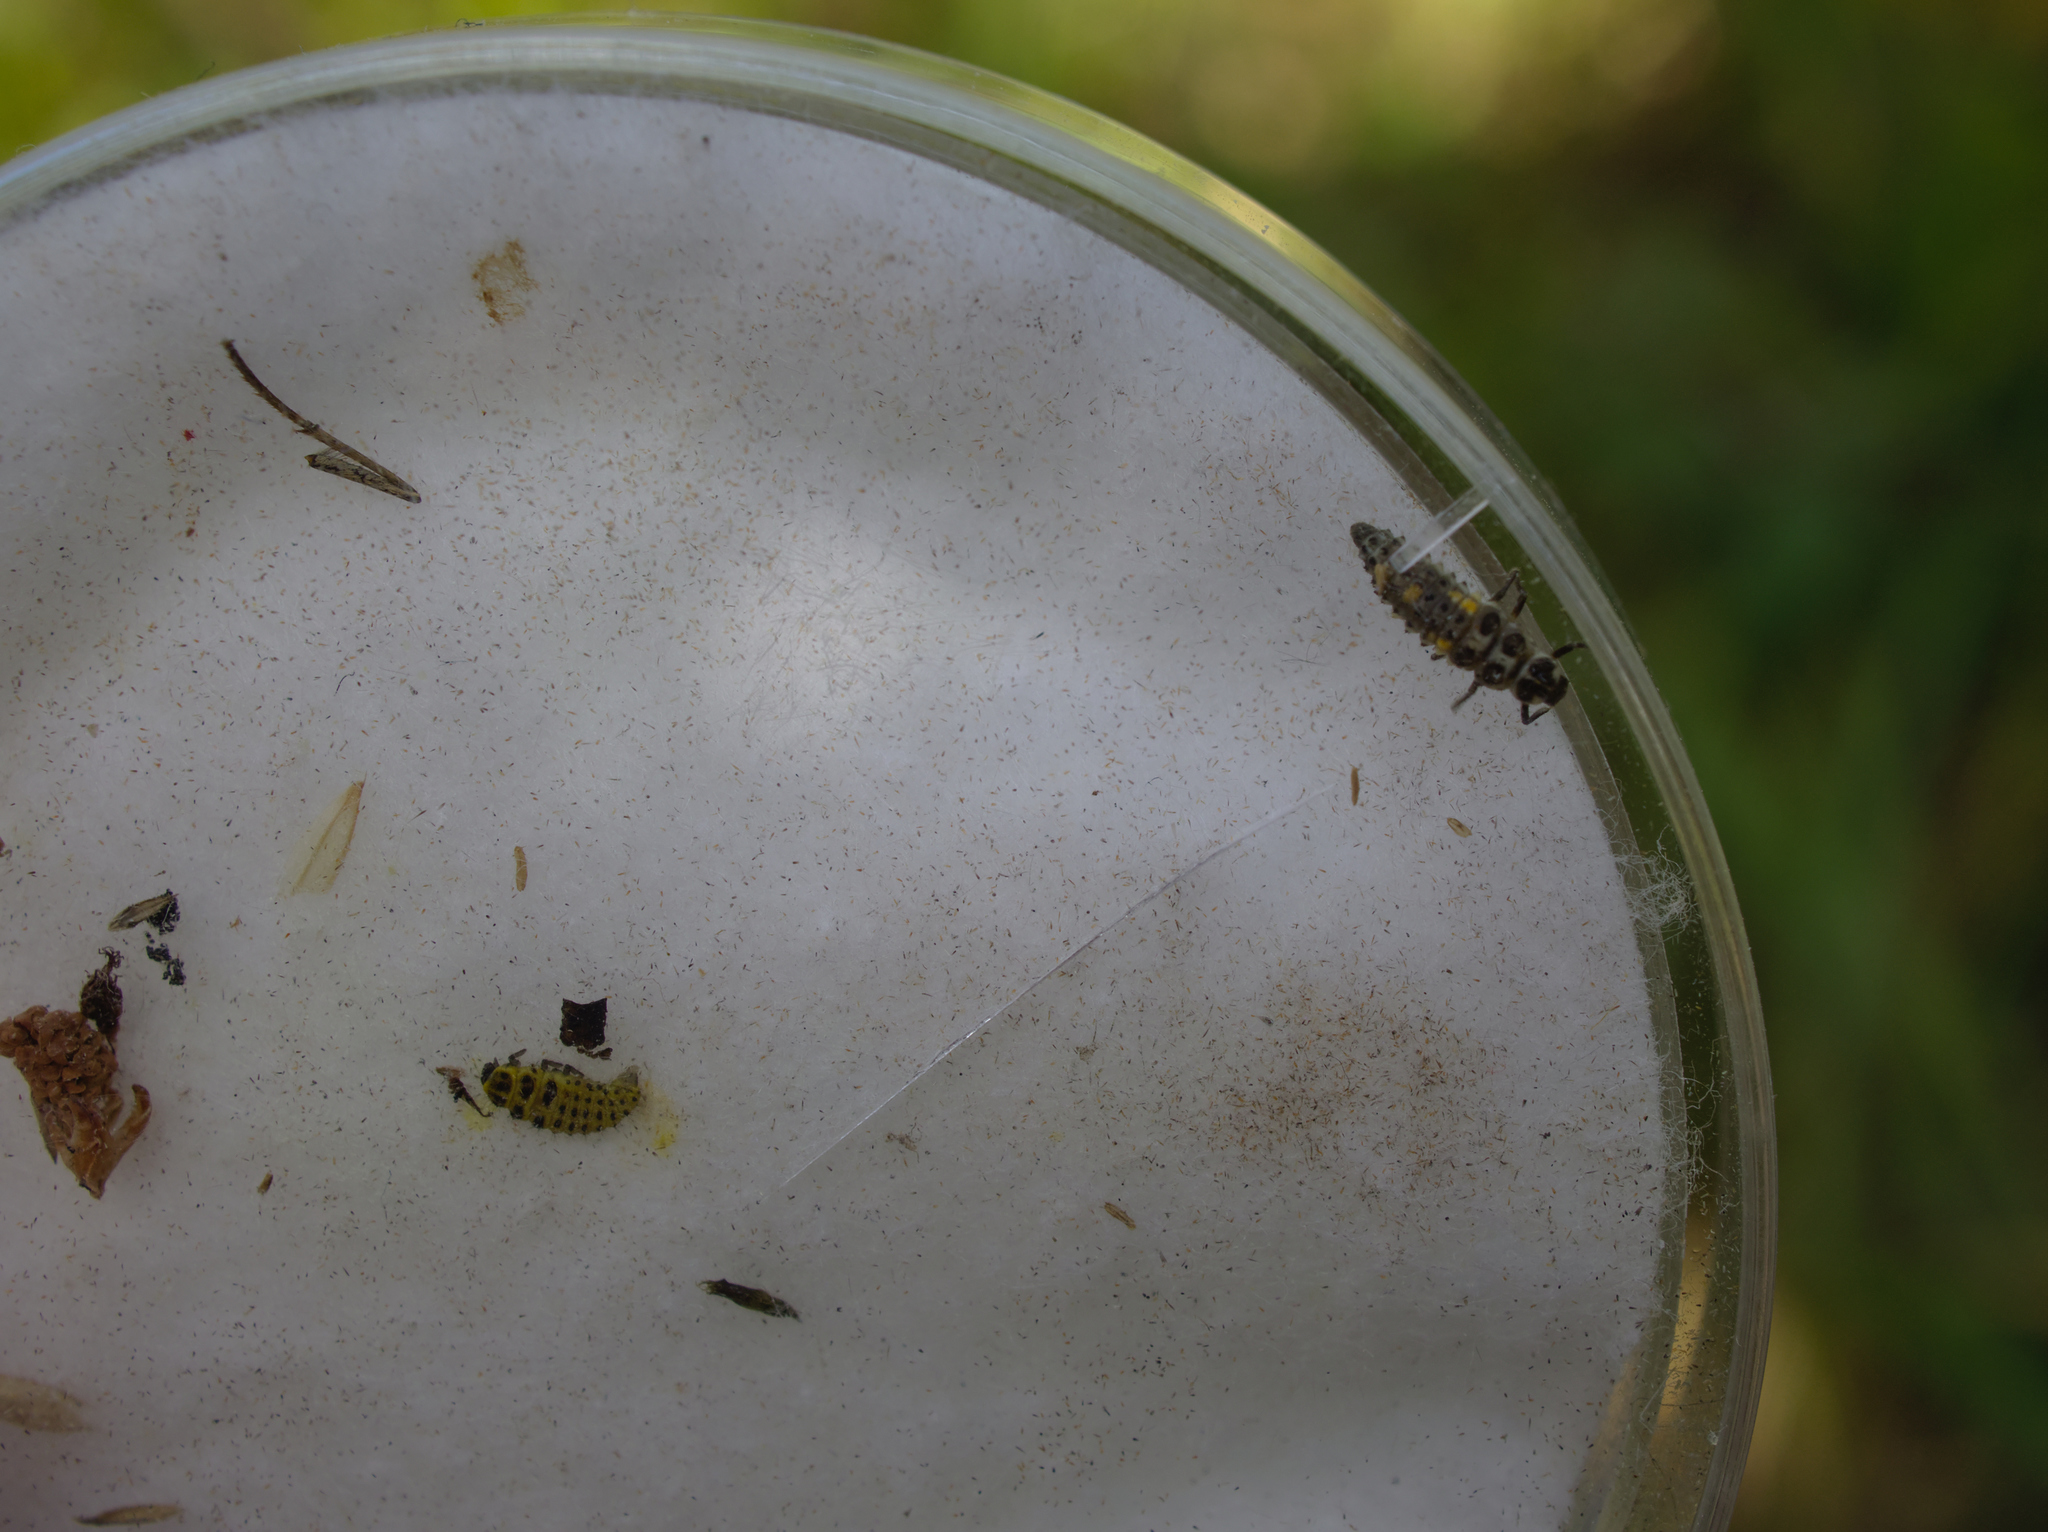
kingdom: Animalia
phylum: Arthropoda
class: Insecta
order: Coleoptera
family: Coccinellidae
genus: Psyllobora
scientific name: Psyllobora vigintiduopunctata
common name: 22-spot ladybird
